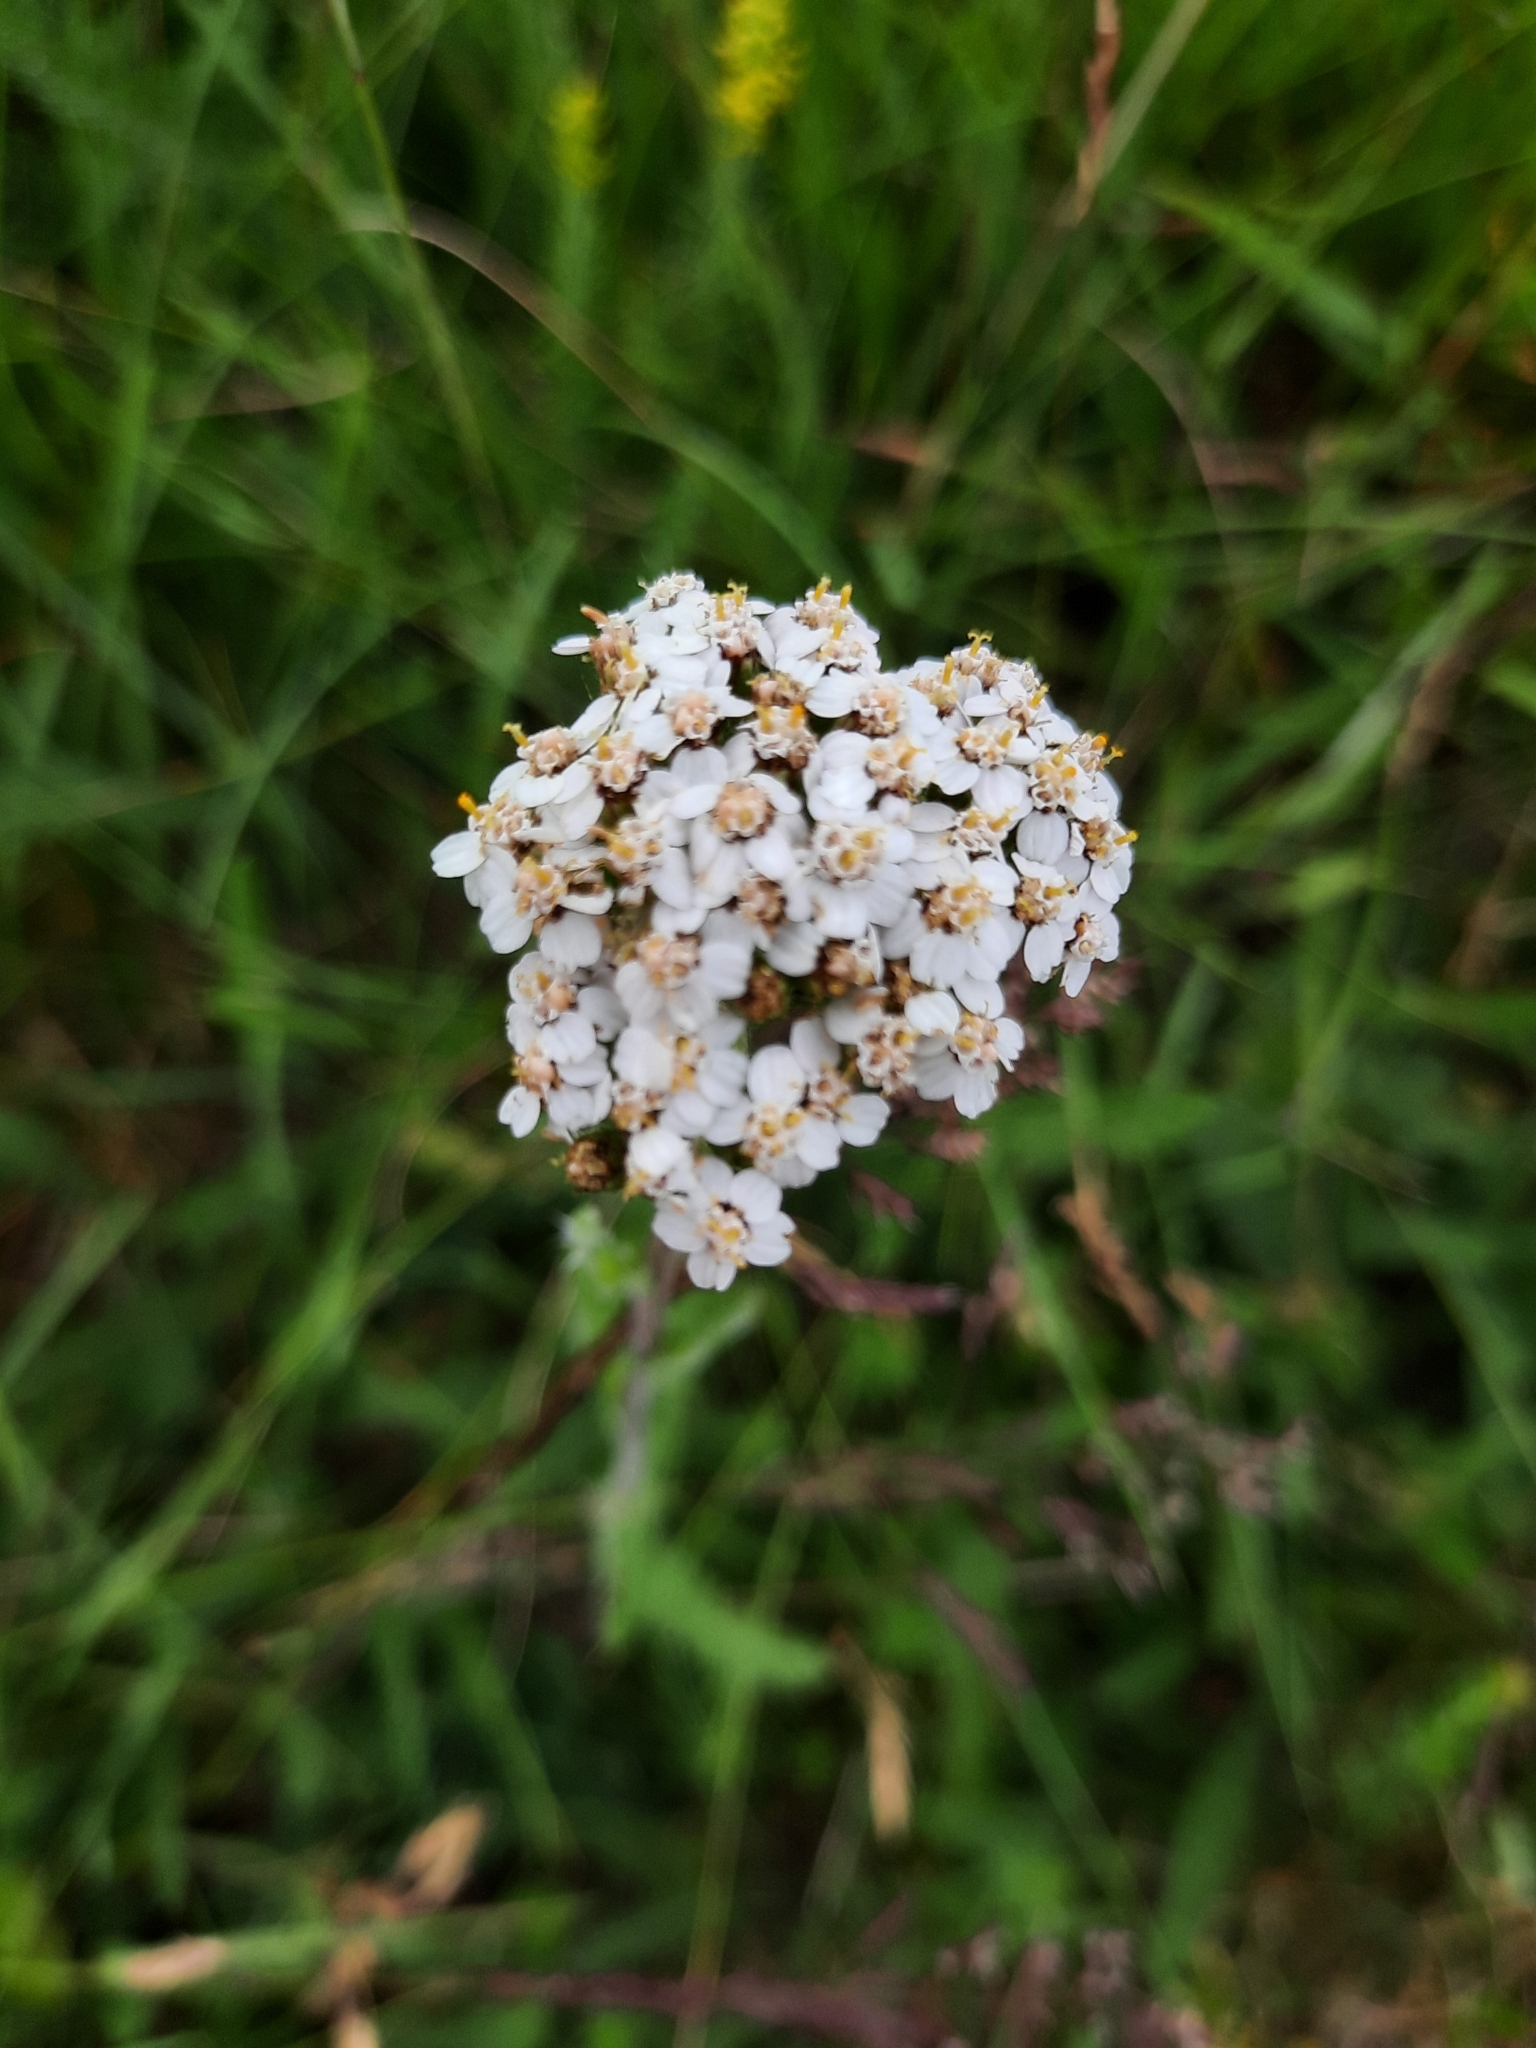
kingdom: Plantae
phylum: Tracheophyta
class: Magnoliopsida
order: Asterales
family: Asteraceae
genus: Achillea
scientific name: Achillea millefolium
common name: Yarrow
